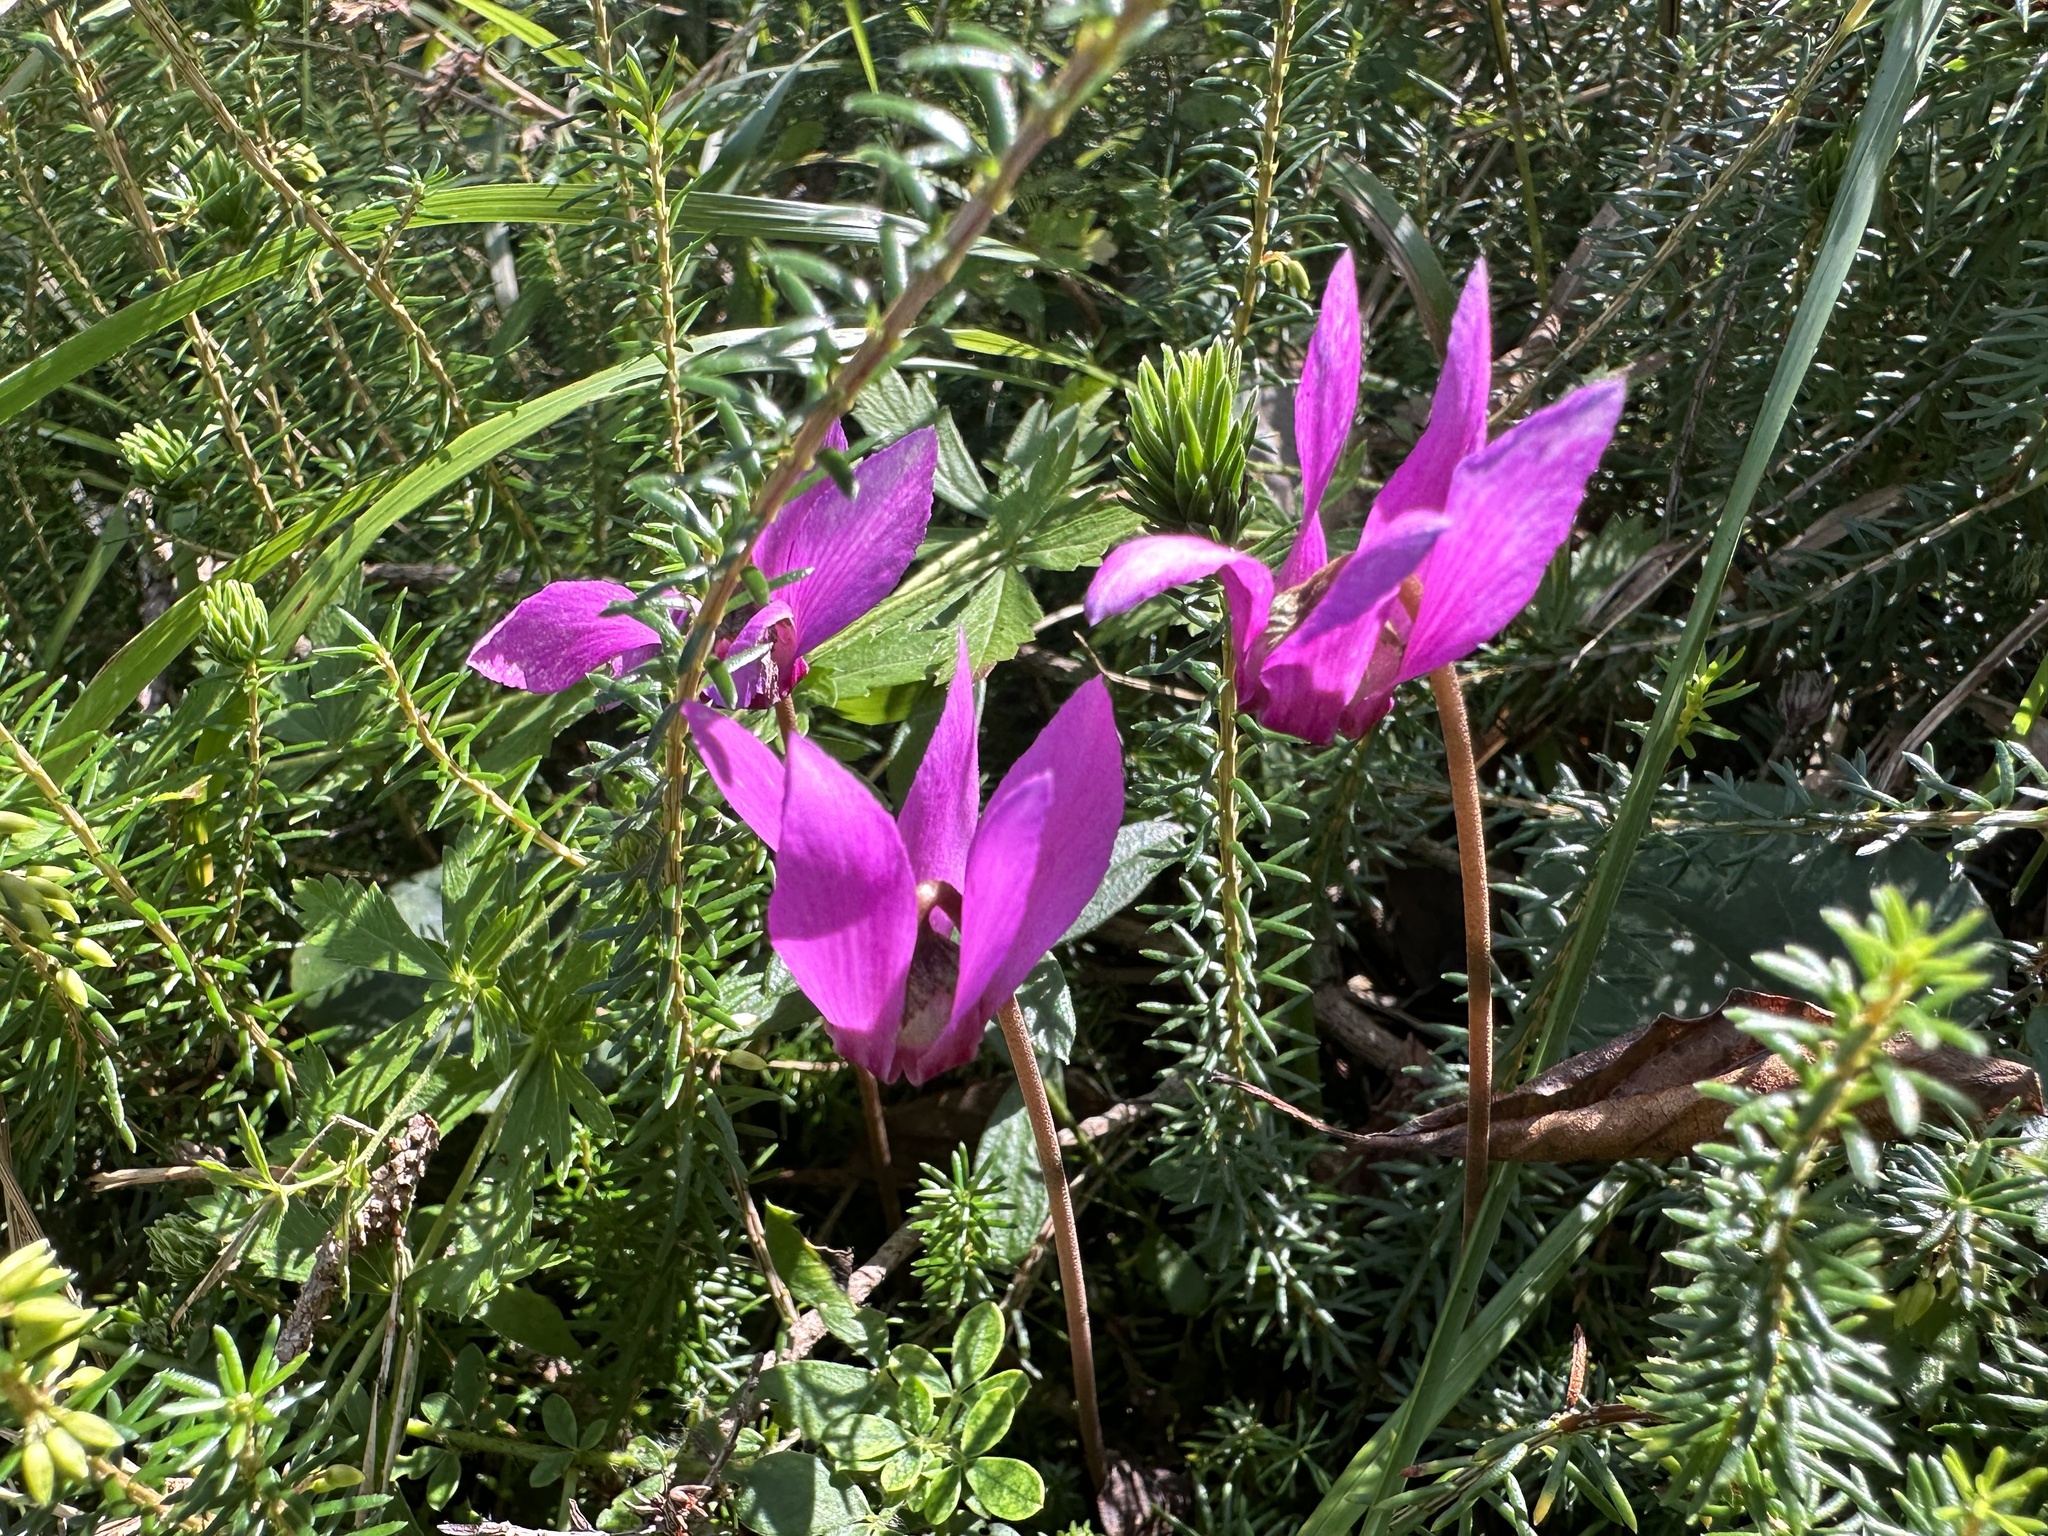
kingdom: Plantae
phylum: Tracheophyta
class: Magnoliopsida
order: Ericales
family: Primulaceae
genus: Cyclamen
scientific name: Cyclamen purpurascens
